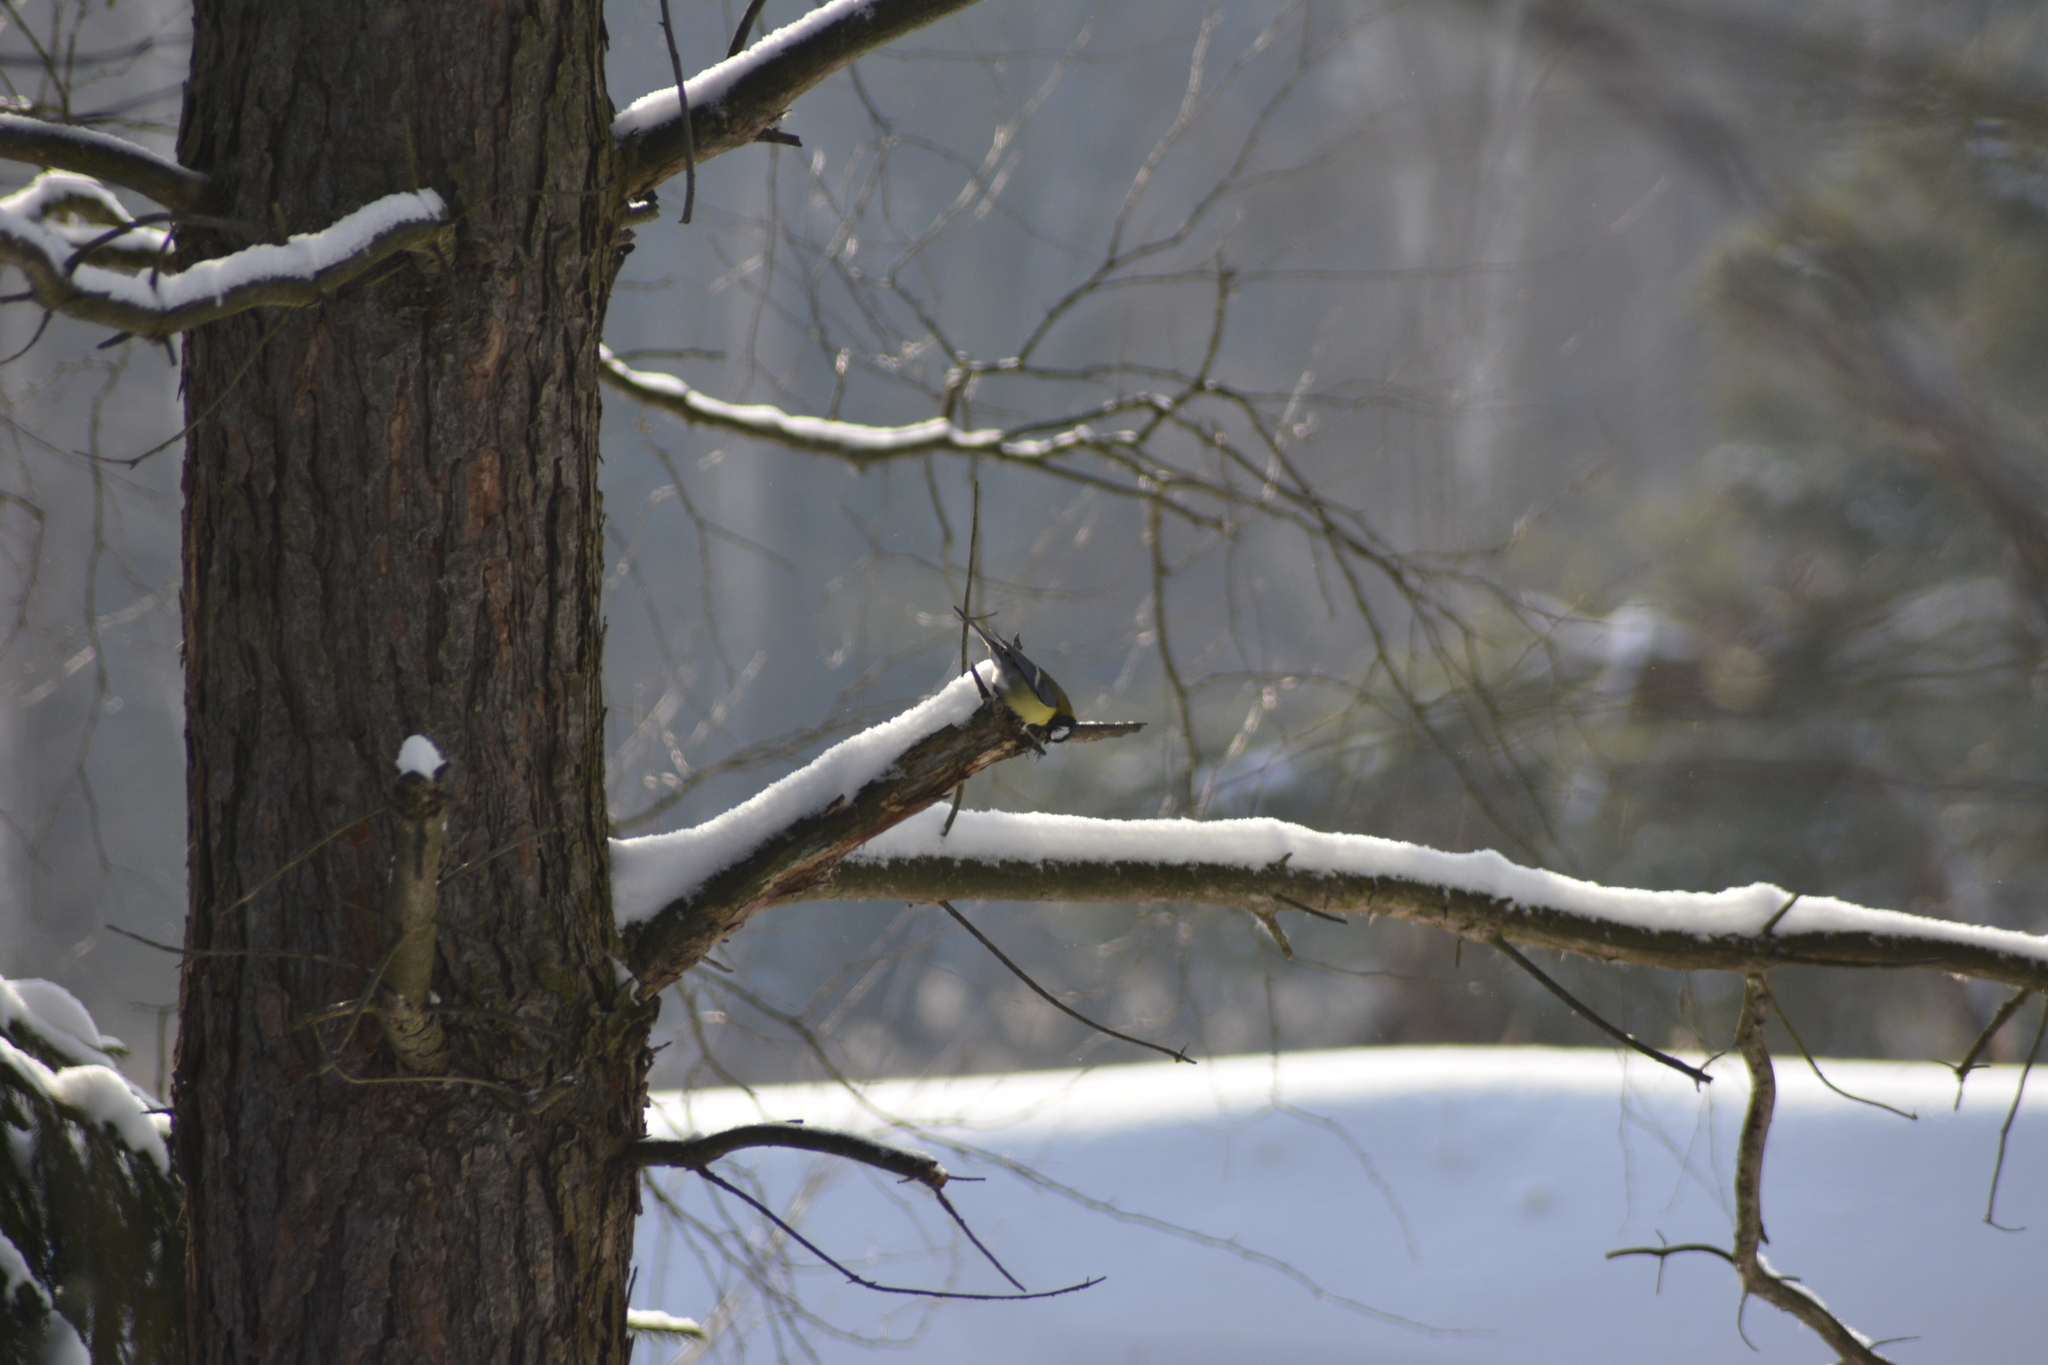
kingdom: Animalia
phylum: Chordata
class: Aves
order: Passeriformes
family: Paridae
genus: Parus
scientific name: Parus major
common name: Great tit
